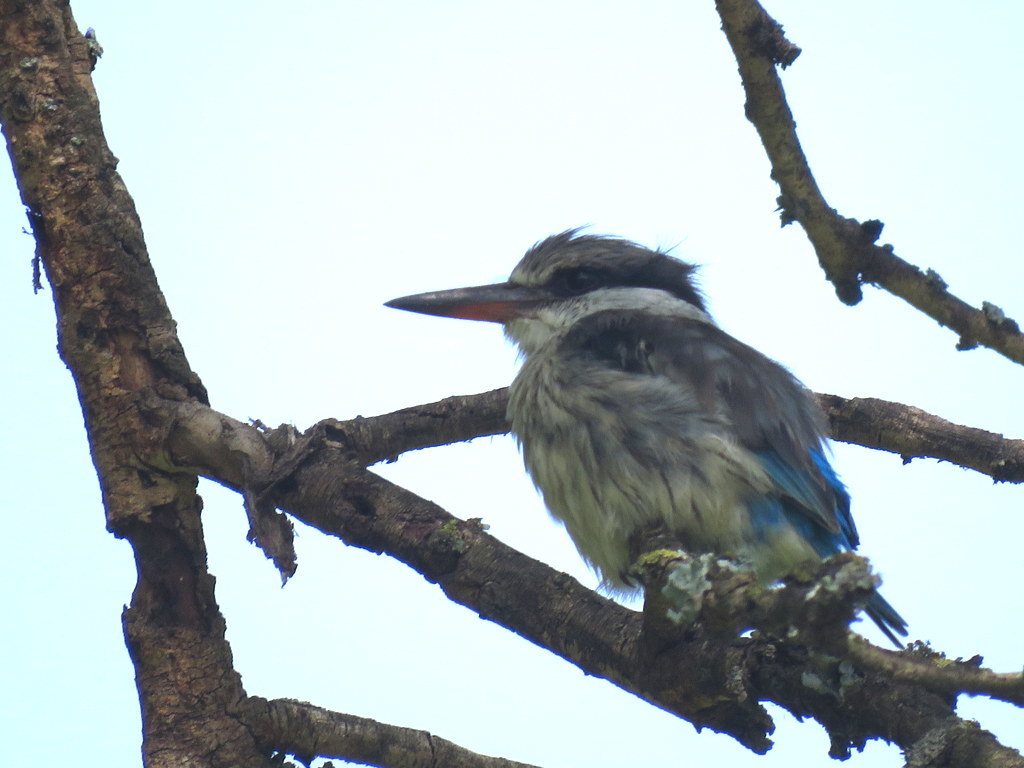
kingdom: Animalia
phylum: Chordata
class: Aves
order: Coraciiformes
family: Alcedinidae
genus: Halcyon
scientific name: Halcyon chelicuti
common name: Striped kingfisher
